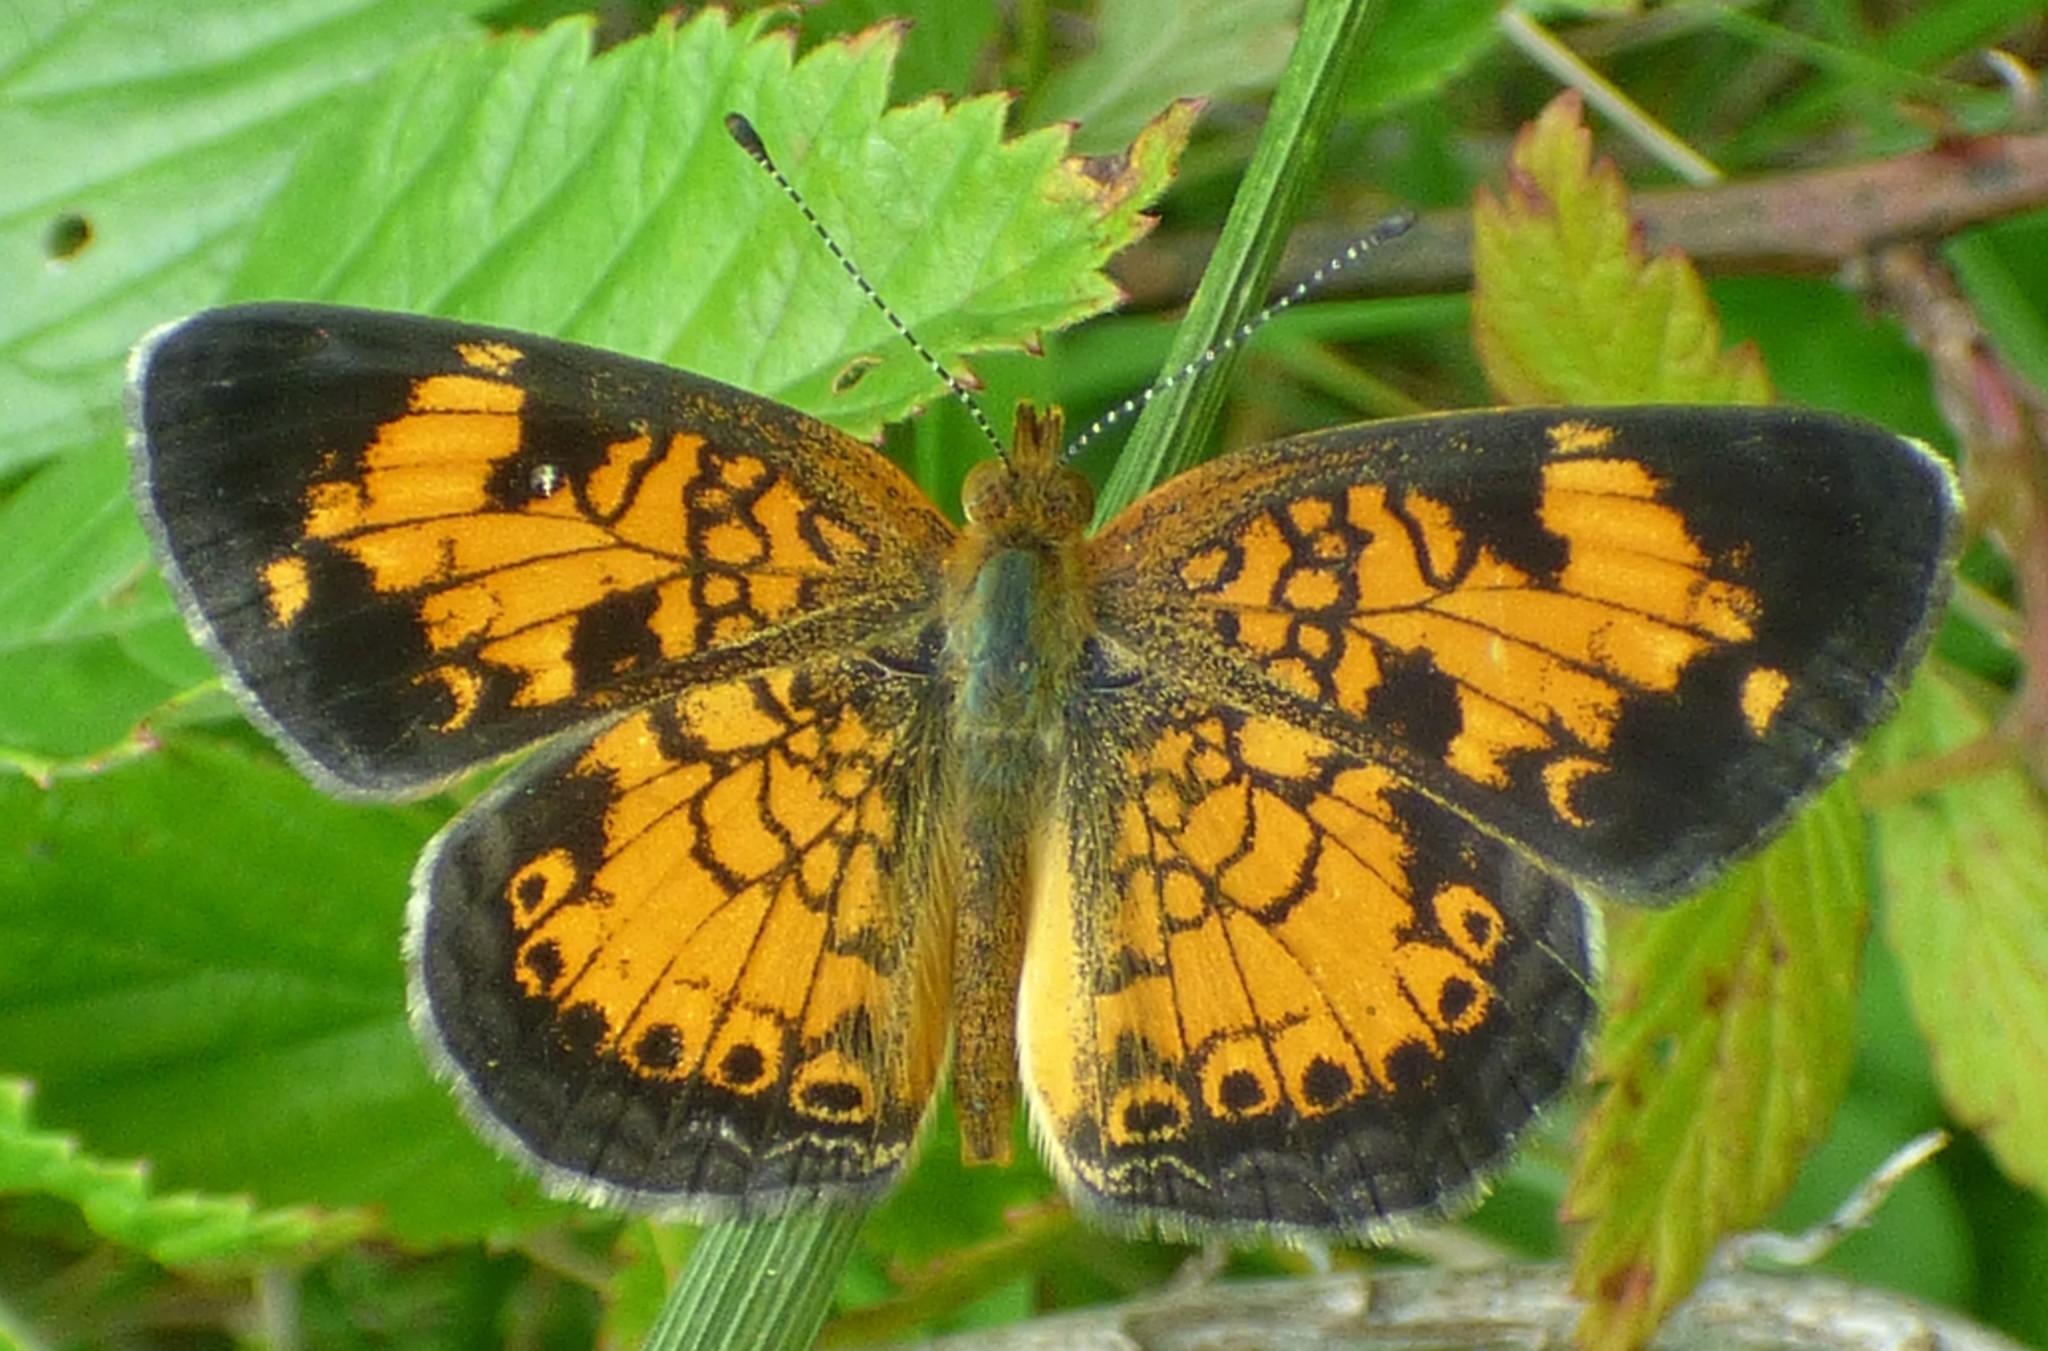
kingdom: Animalia
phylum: Arthropoda
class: Insecta
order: Lepidoptera
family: Nymphalidae
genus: Phyciodes
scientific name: Phyciodes tharos
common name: Pearl crescent
